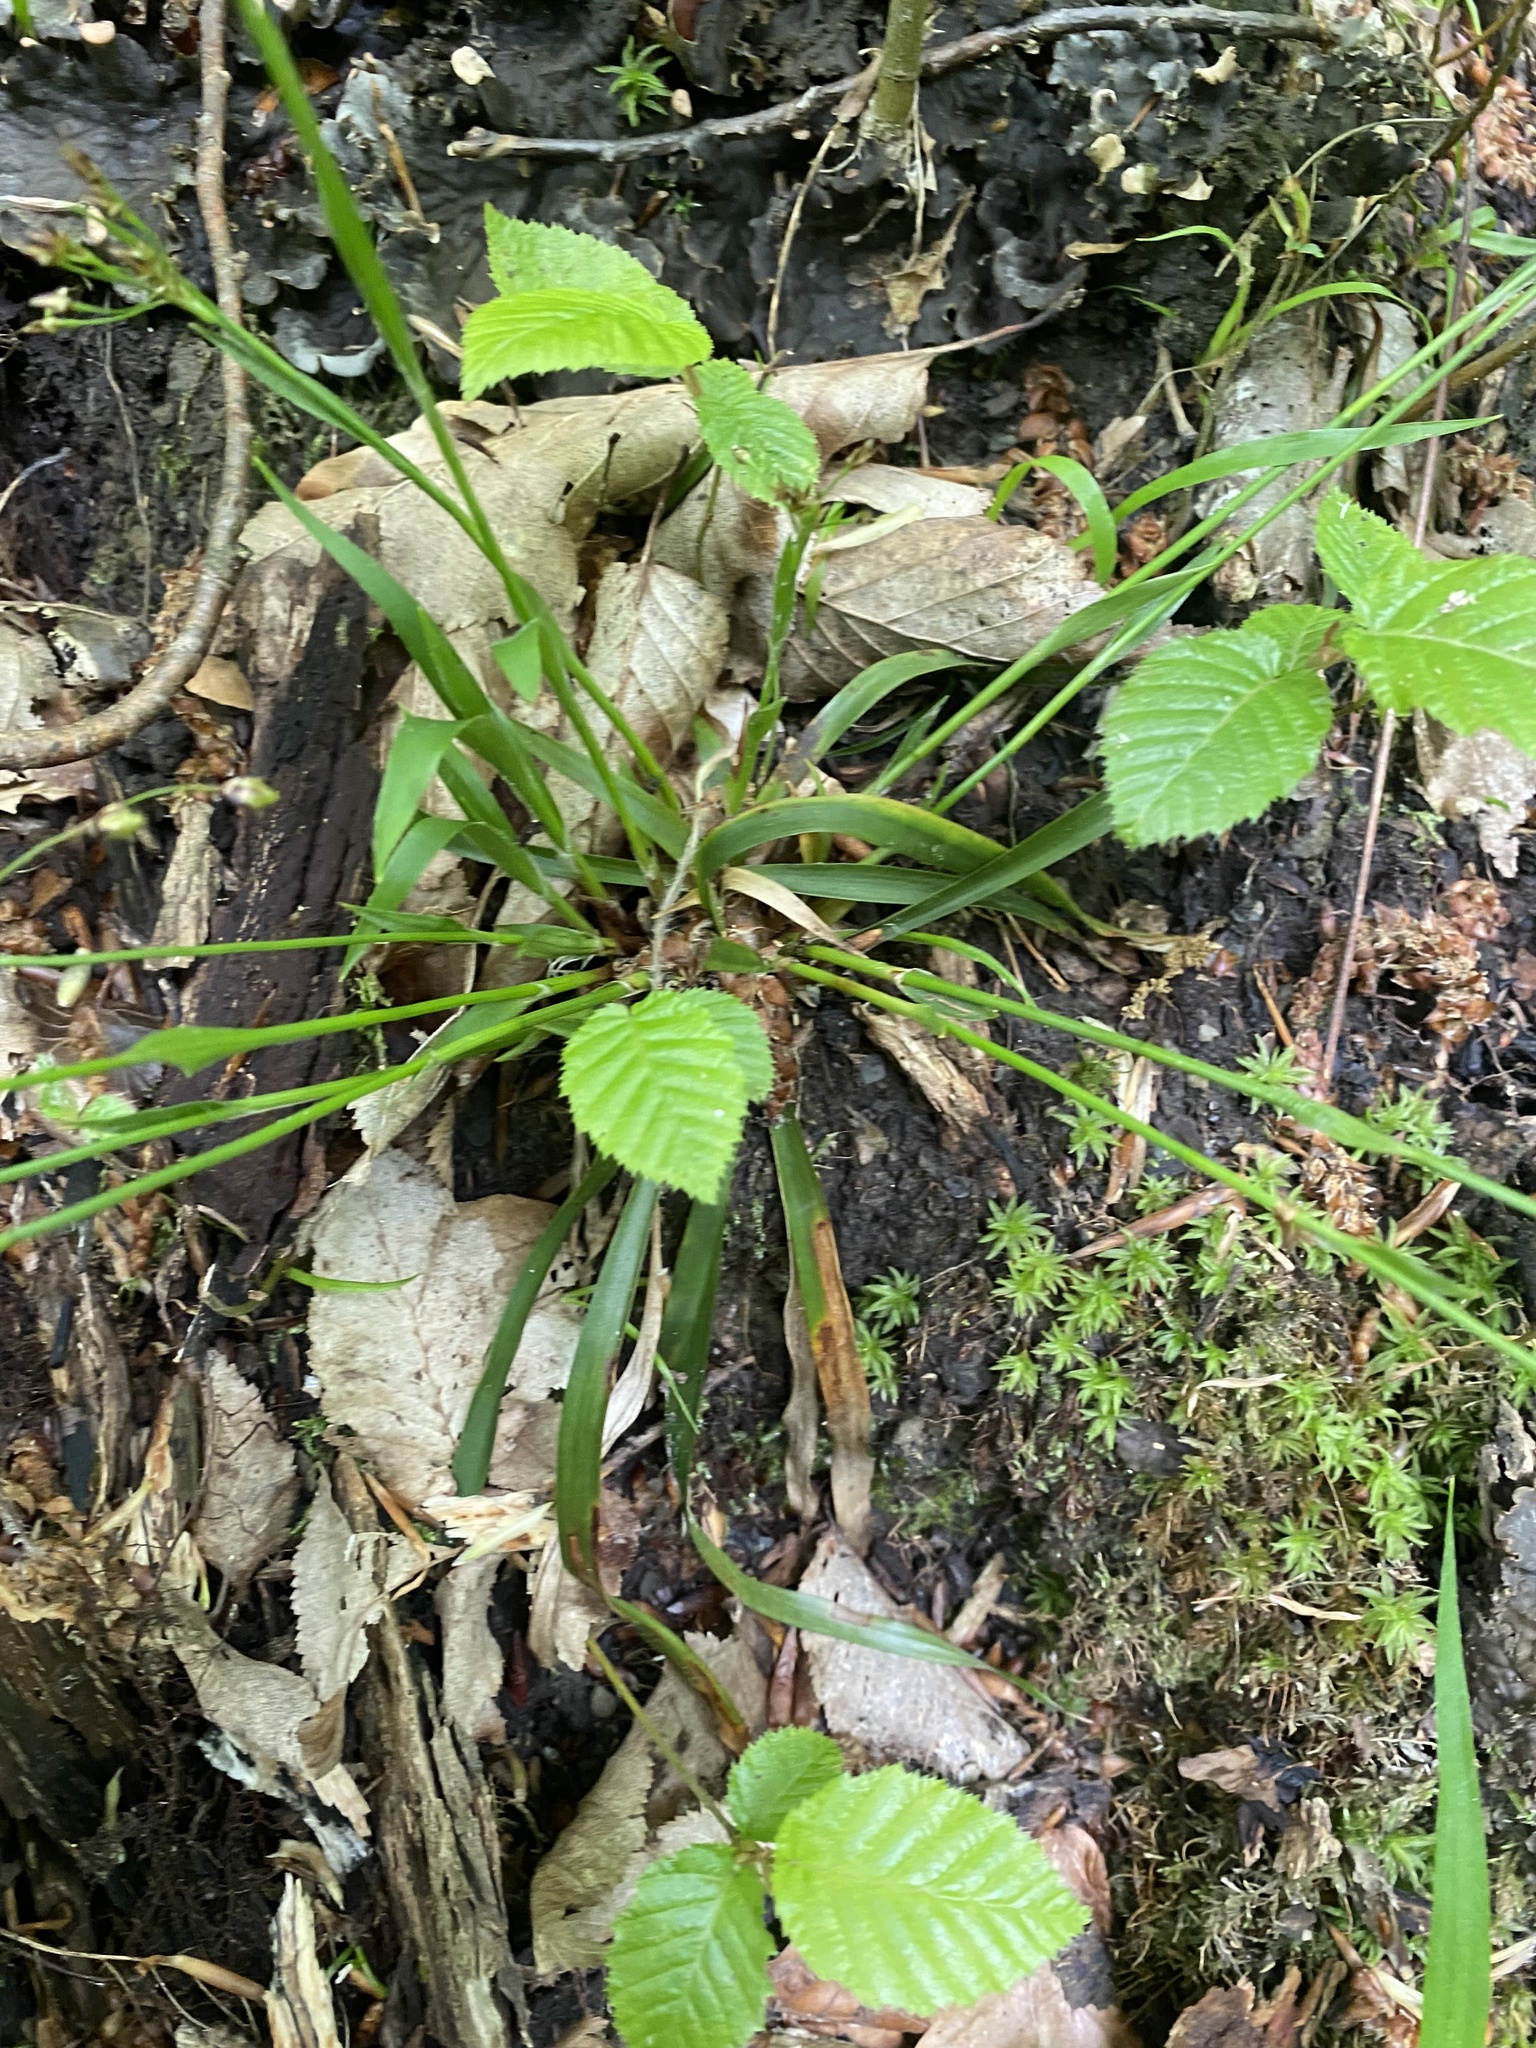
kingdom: Plantae
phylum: Tracheophyta
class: Liliopsida
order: Poales
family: Juncaceae
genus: Luzula
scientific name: Luzula forsteri
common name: Southern wood-rush
